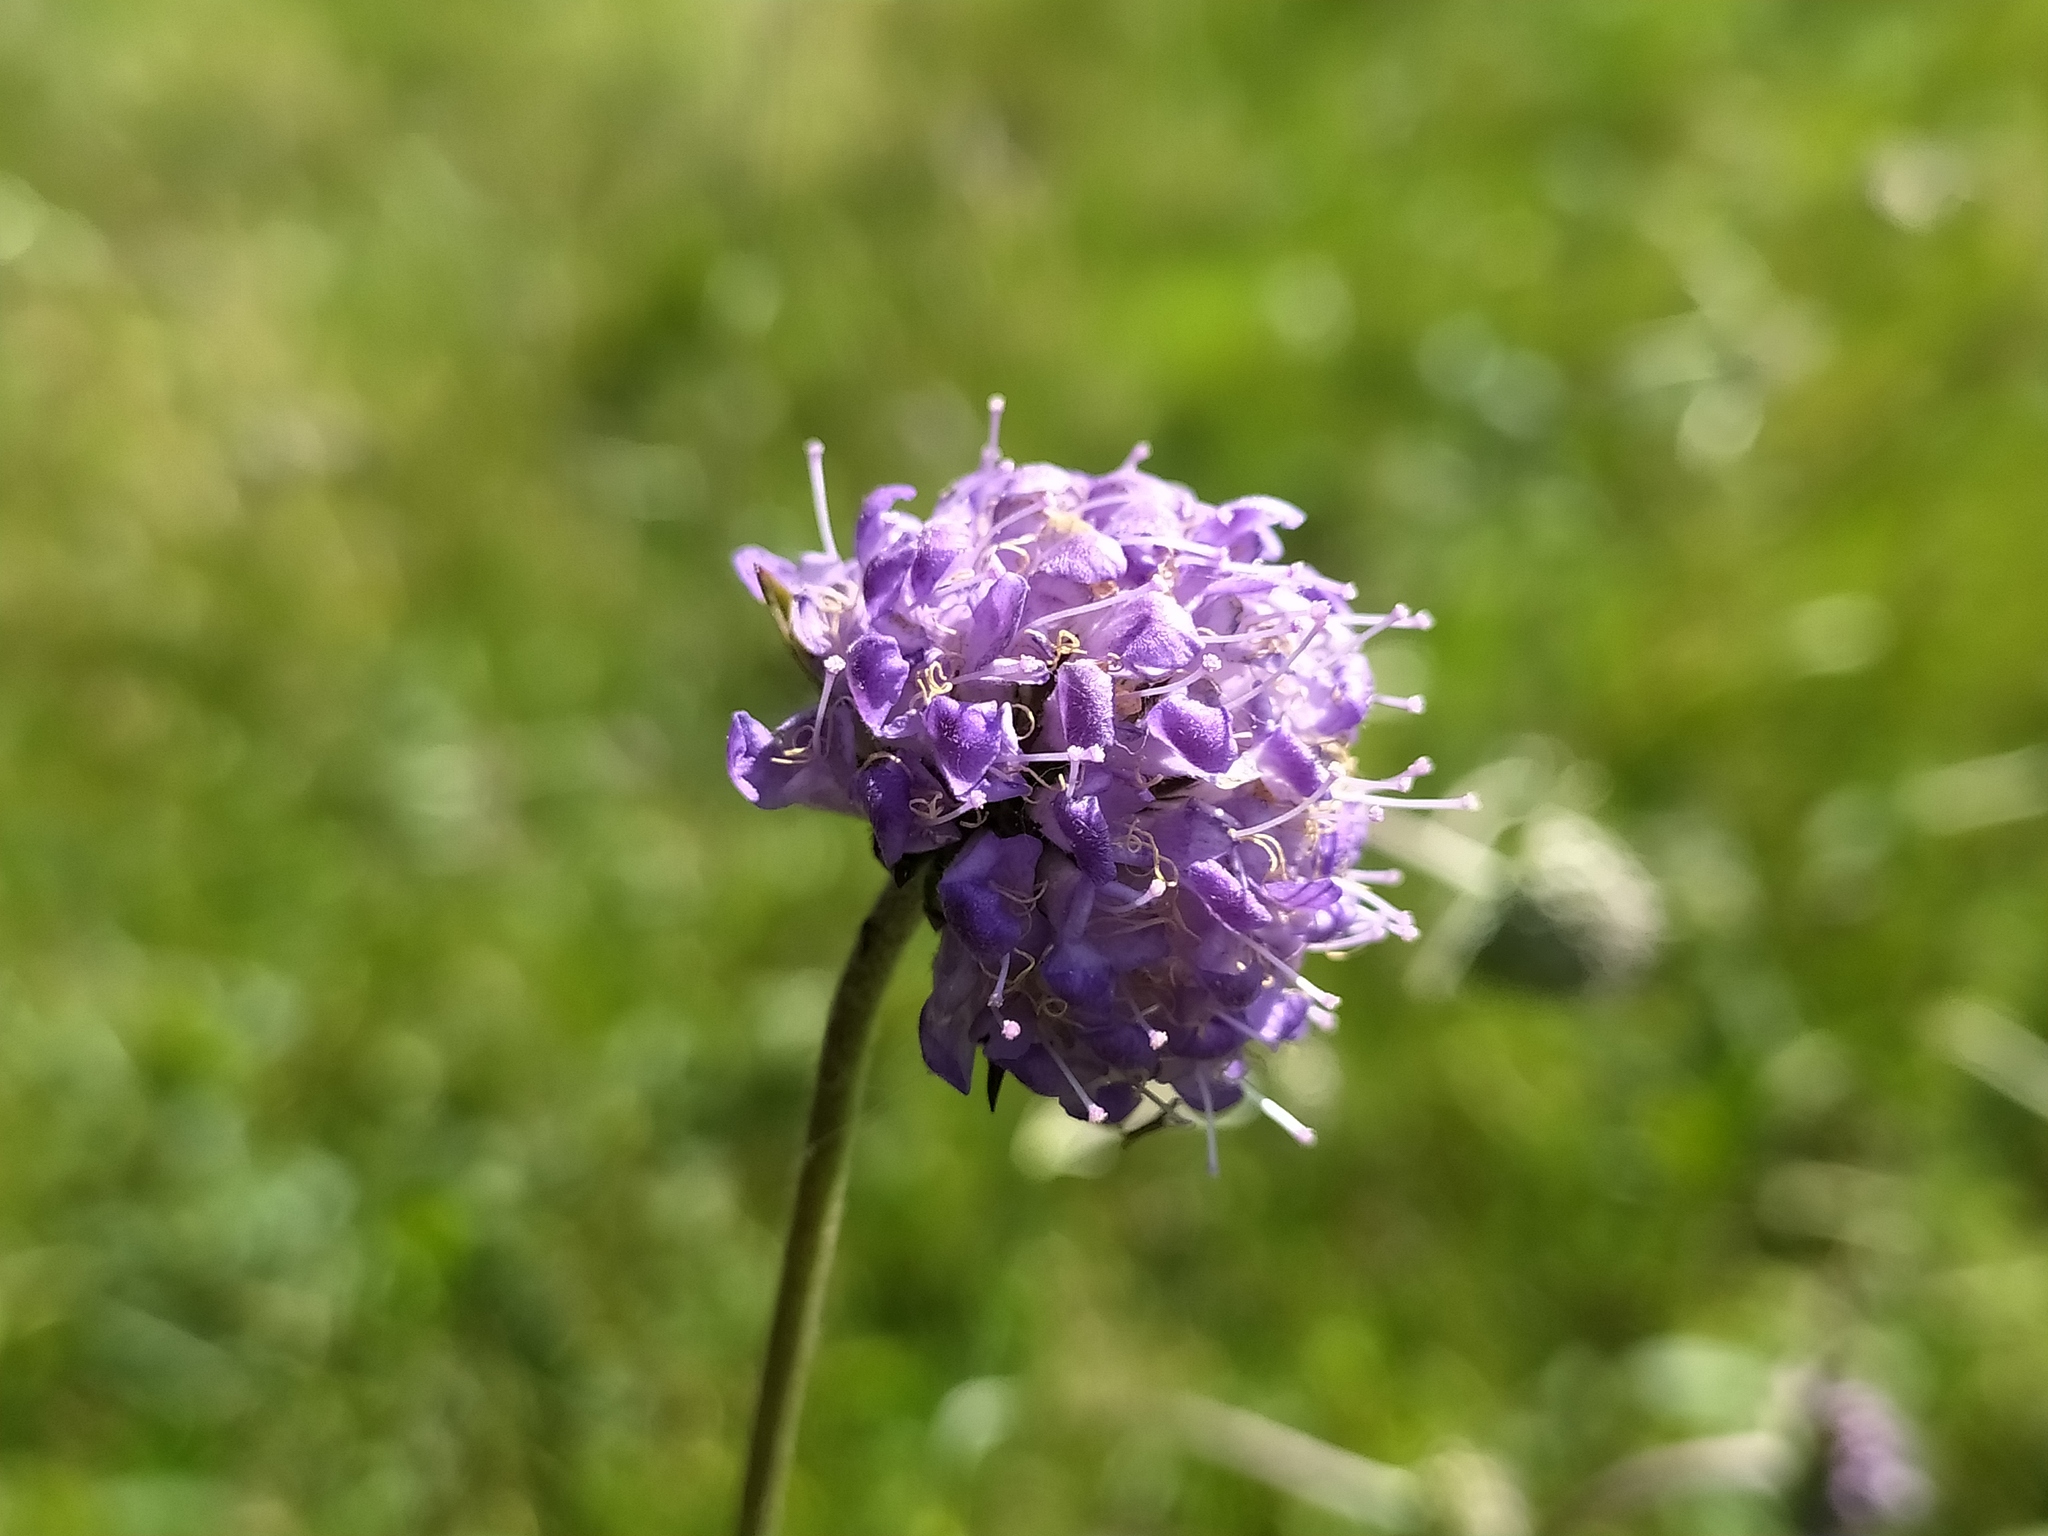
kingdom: Plantae
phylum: Tracheophyta
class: Magnoliopsida
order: Dipsacales
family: Caprifoliaceae
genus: Succisa
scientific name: Succisa pratensis
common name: Devil's-bit
